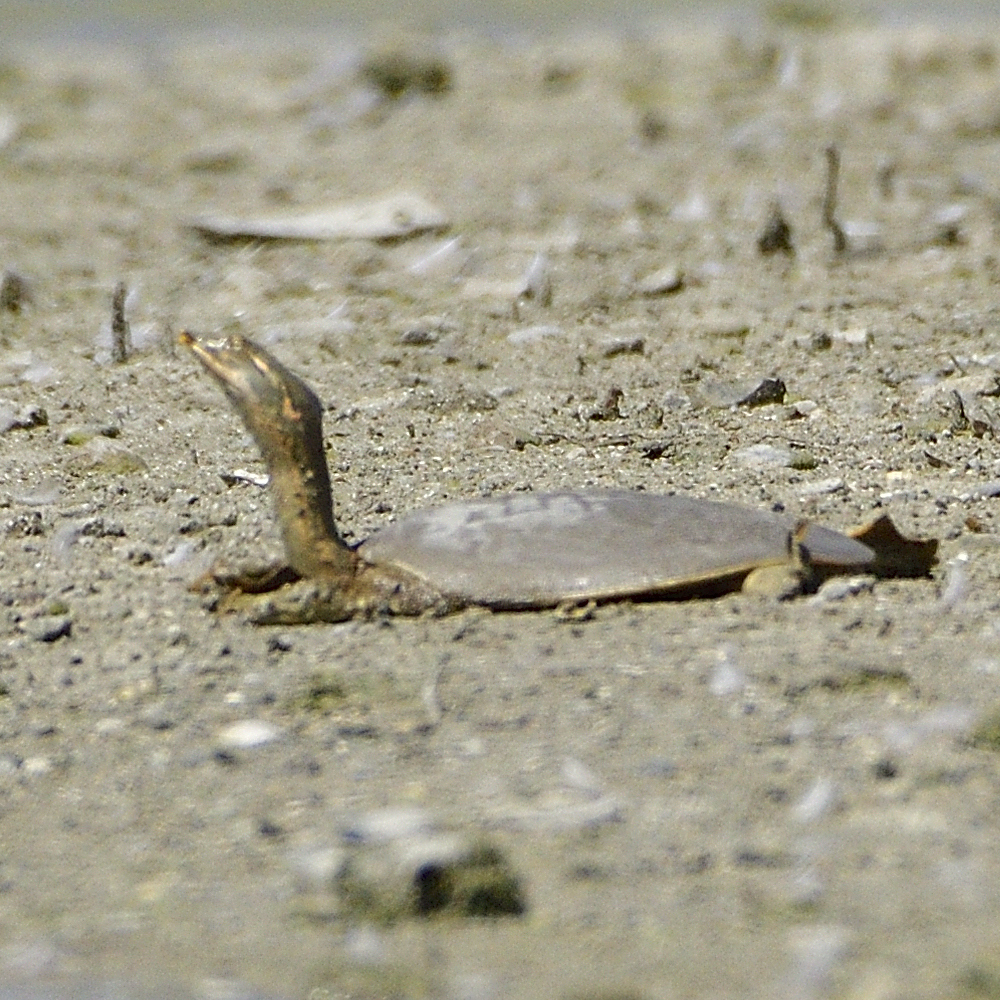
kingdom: Animalia
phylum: Chordata
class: Testudines
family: Trionychidae
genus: Apalone
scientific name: Apalone spinifera
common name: Spiny softshell turtle
